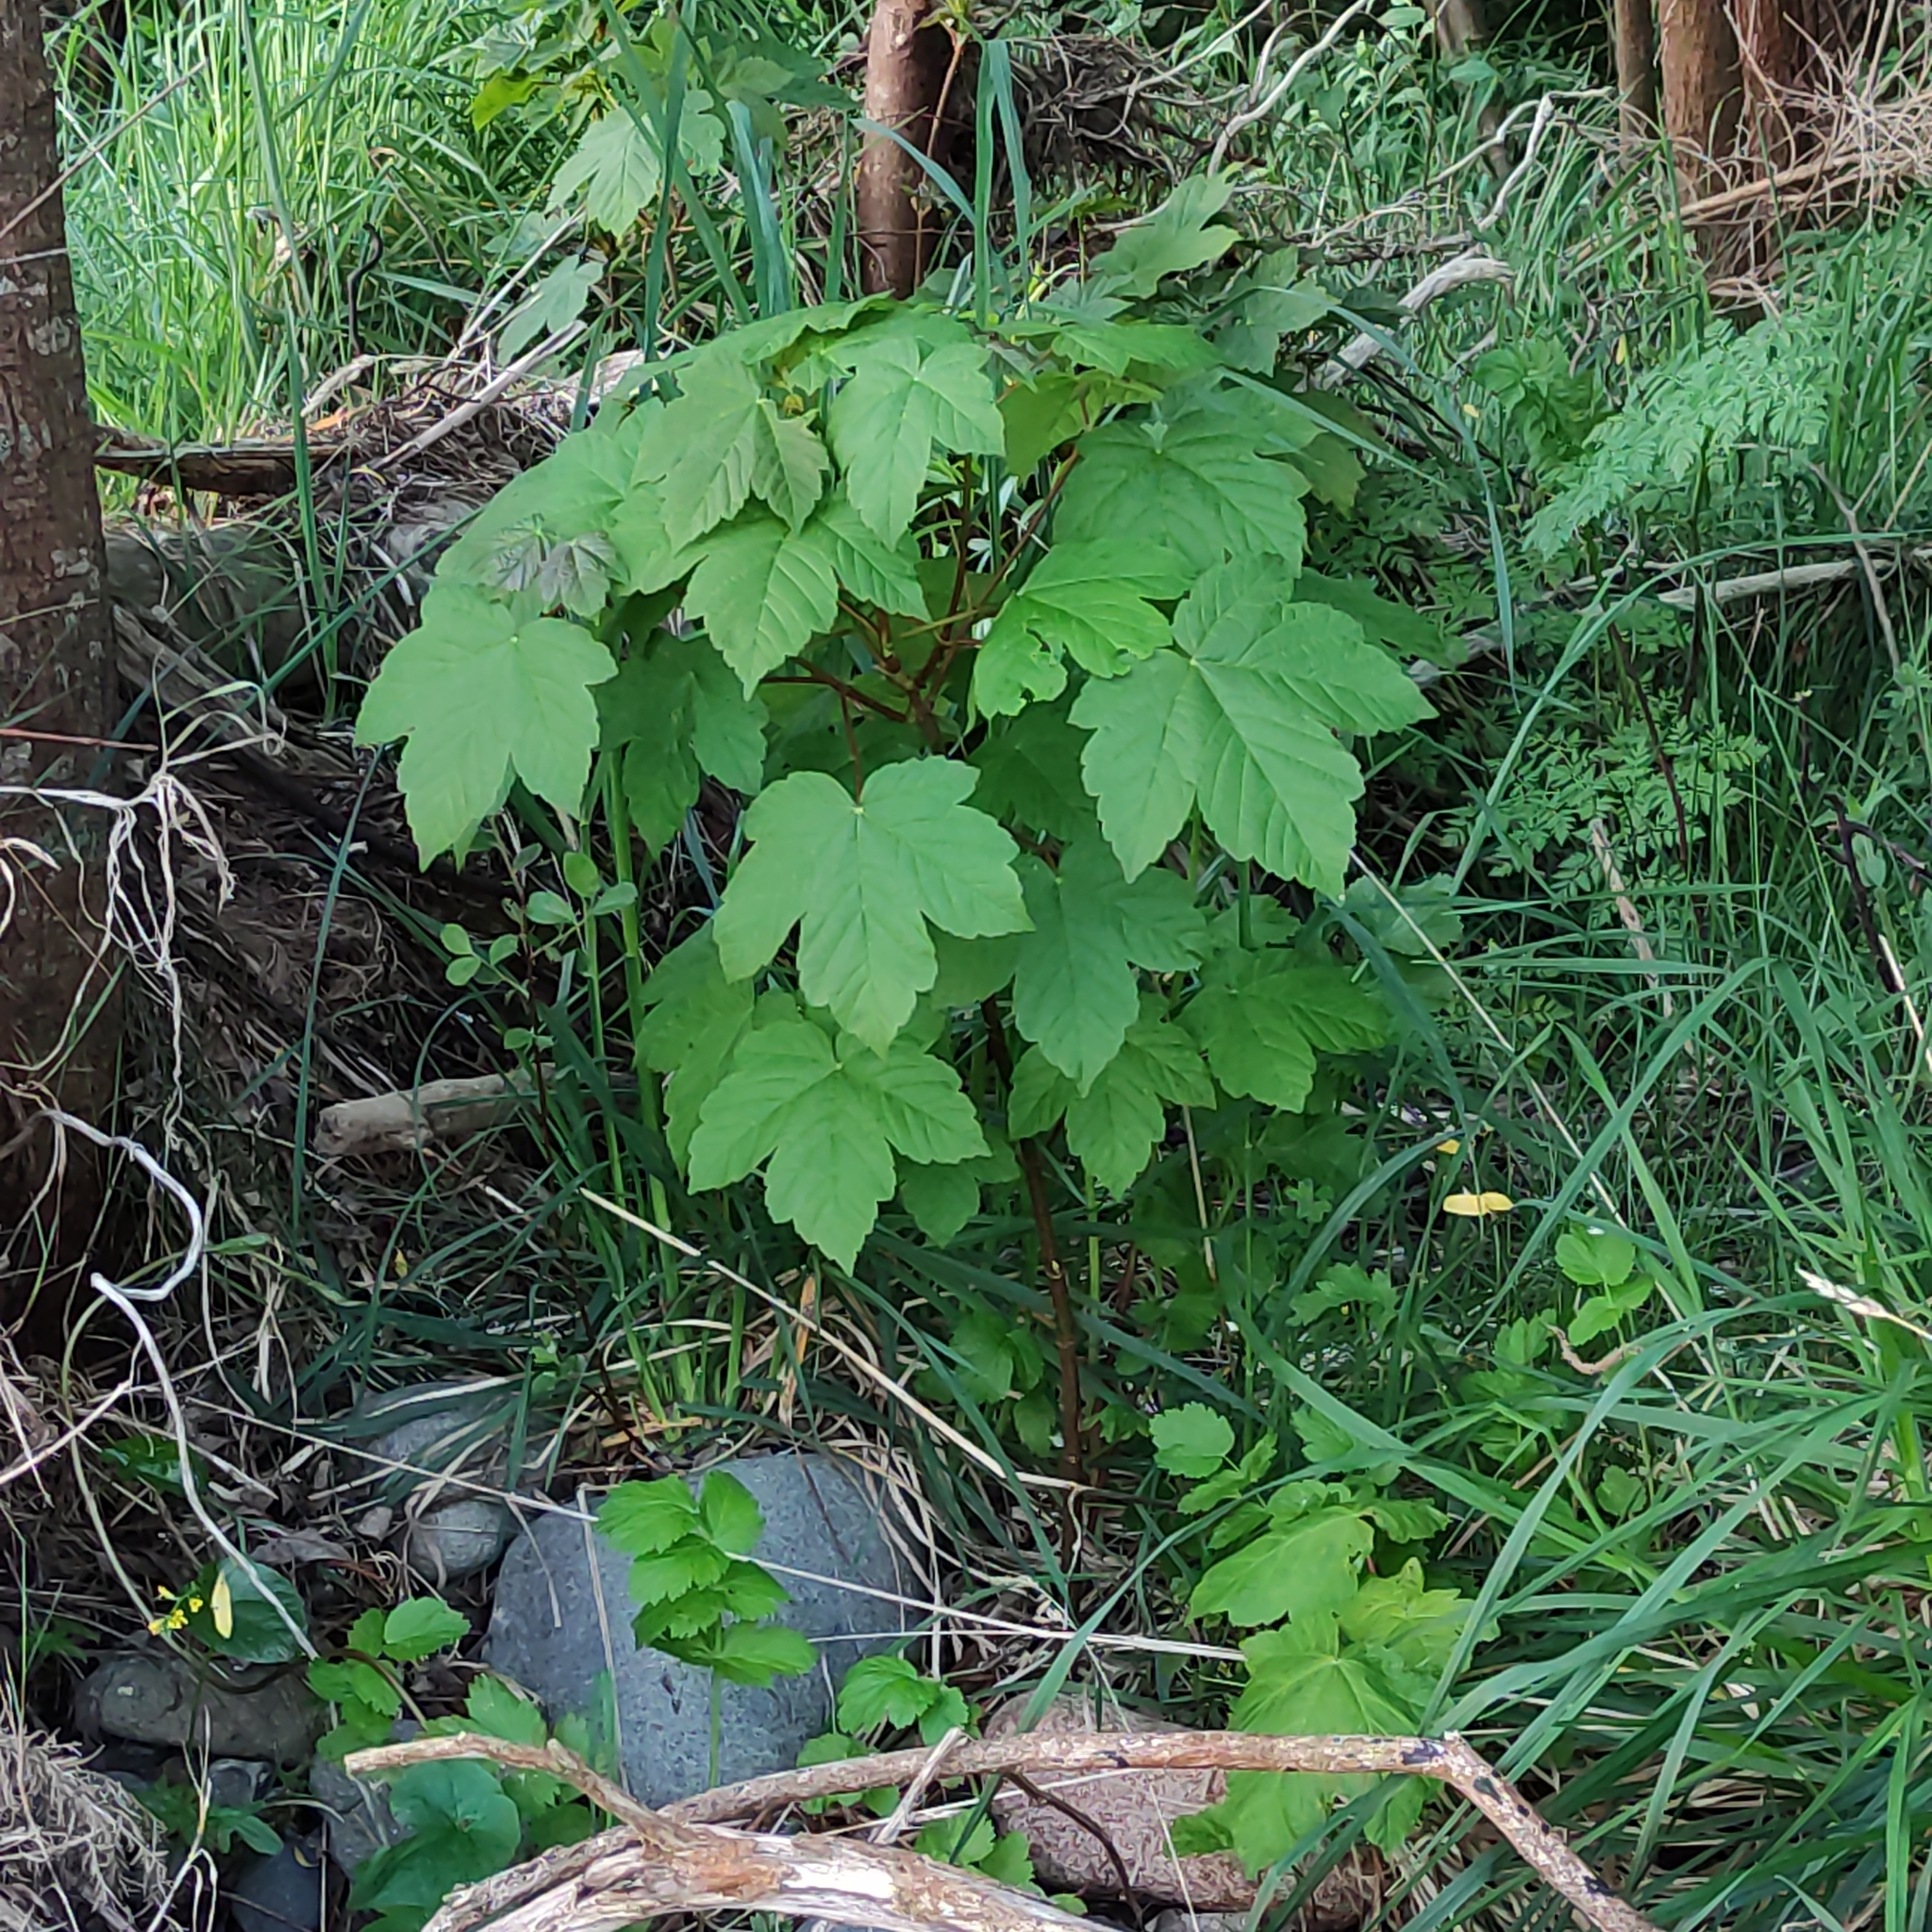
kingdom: Plantae
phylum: Tracheophyta
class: Magnoliopsida
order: Sapindales
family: Sapindaceae
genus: Acer
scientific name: Acer pseudoplatanus
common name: Sycamore
